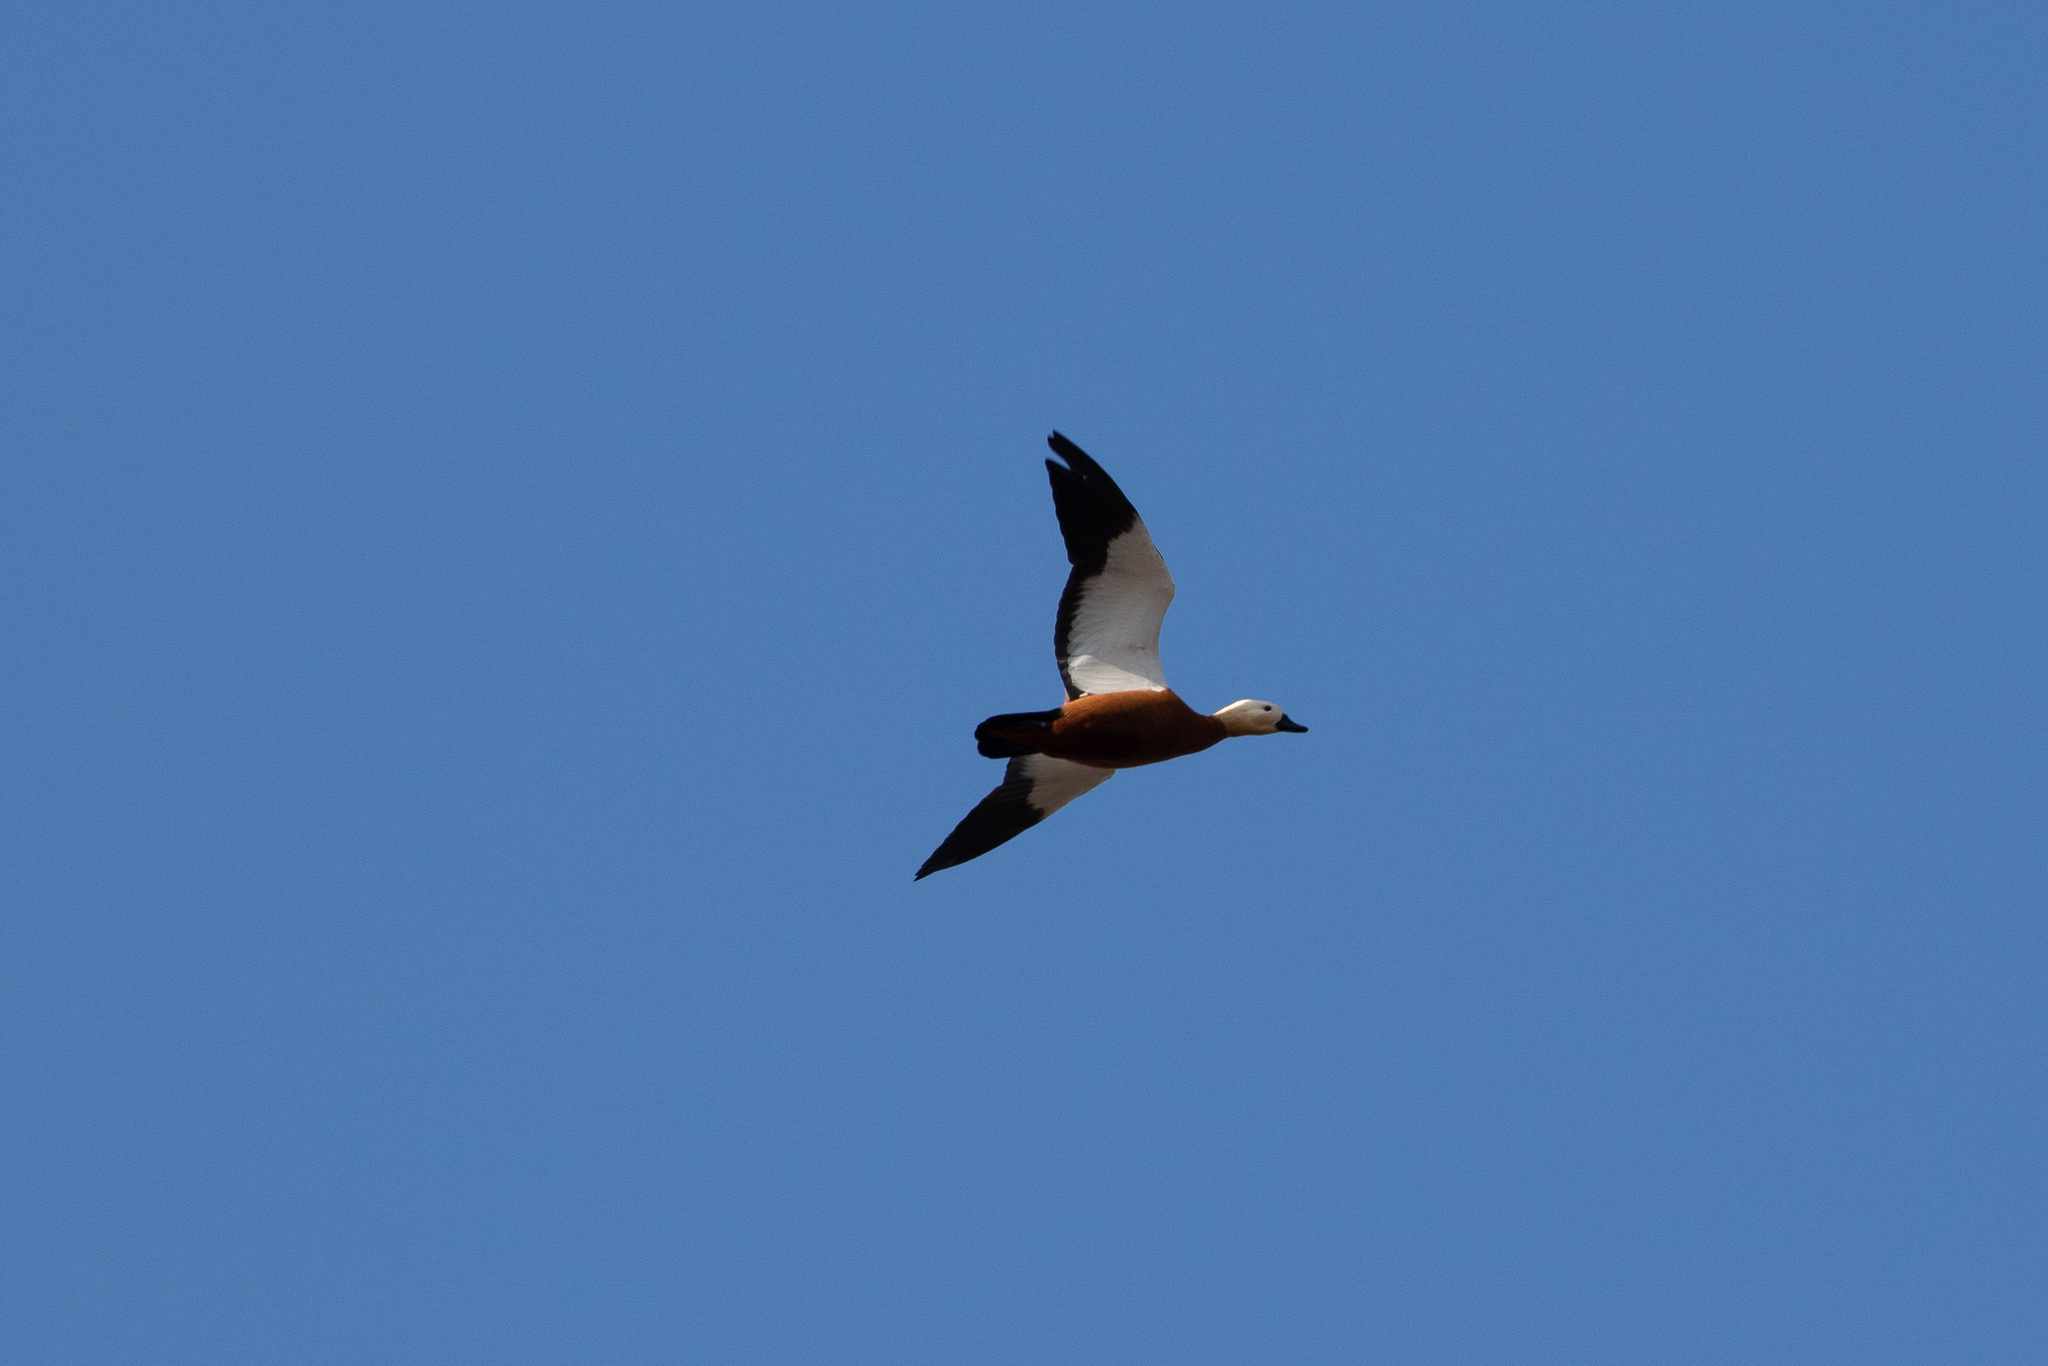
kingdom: Animalia
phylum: Chordata
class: Aves
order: Anseriformes
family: Anatidae
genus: Tadorna
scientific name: Tadorna ferruginea
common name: Ruddy shelduck
